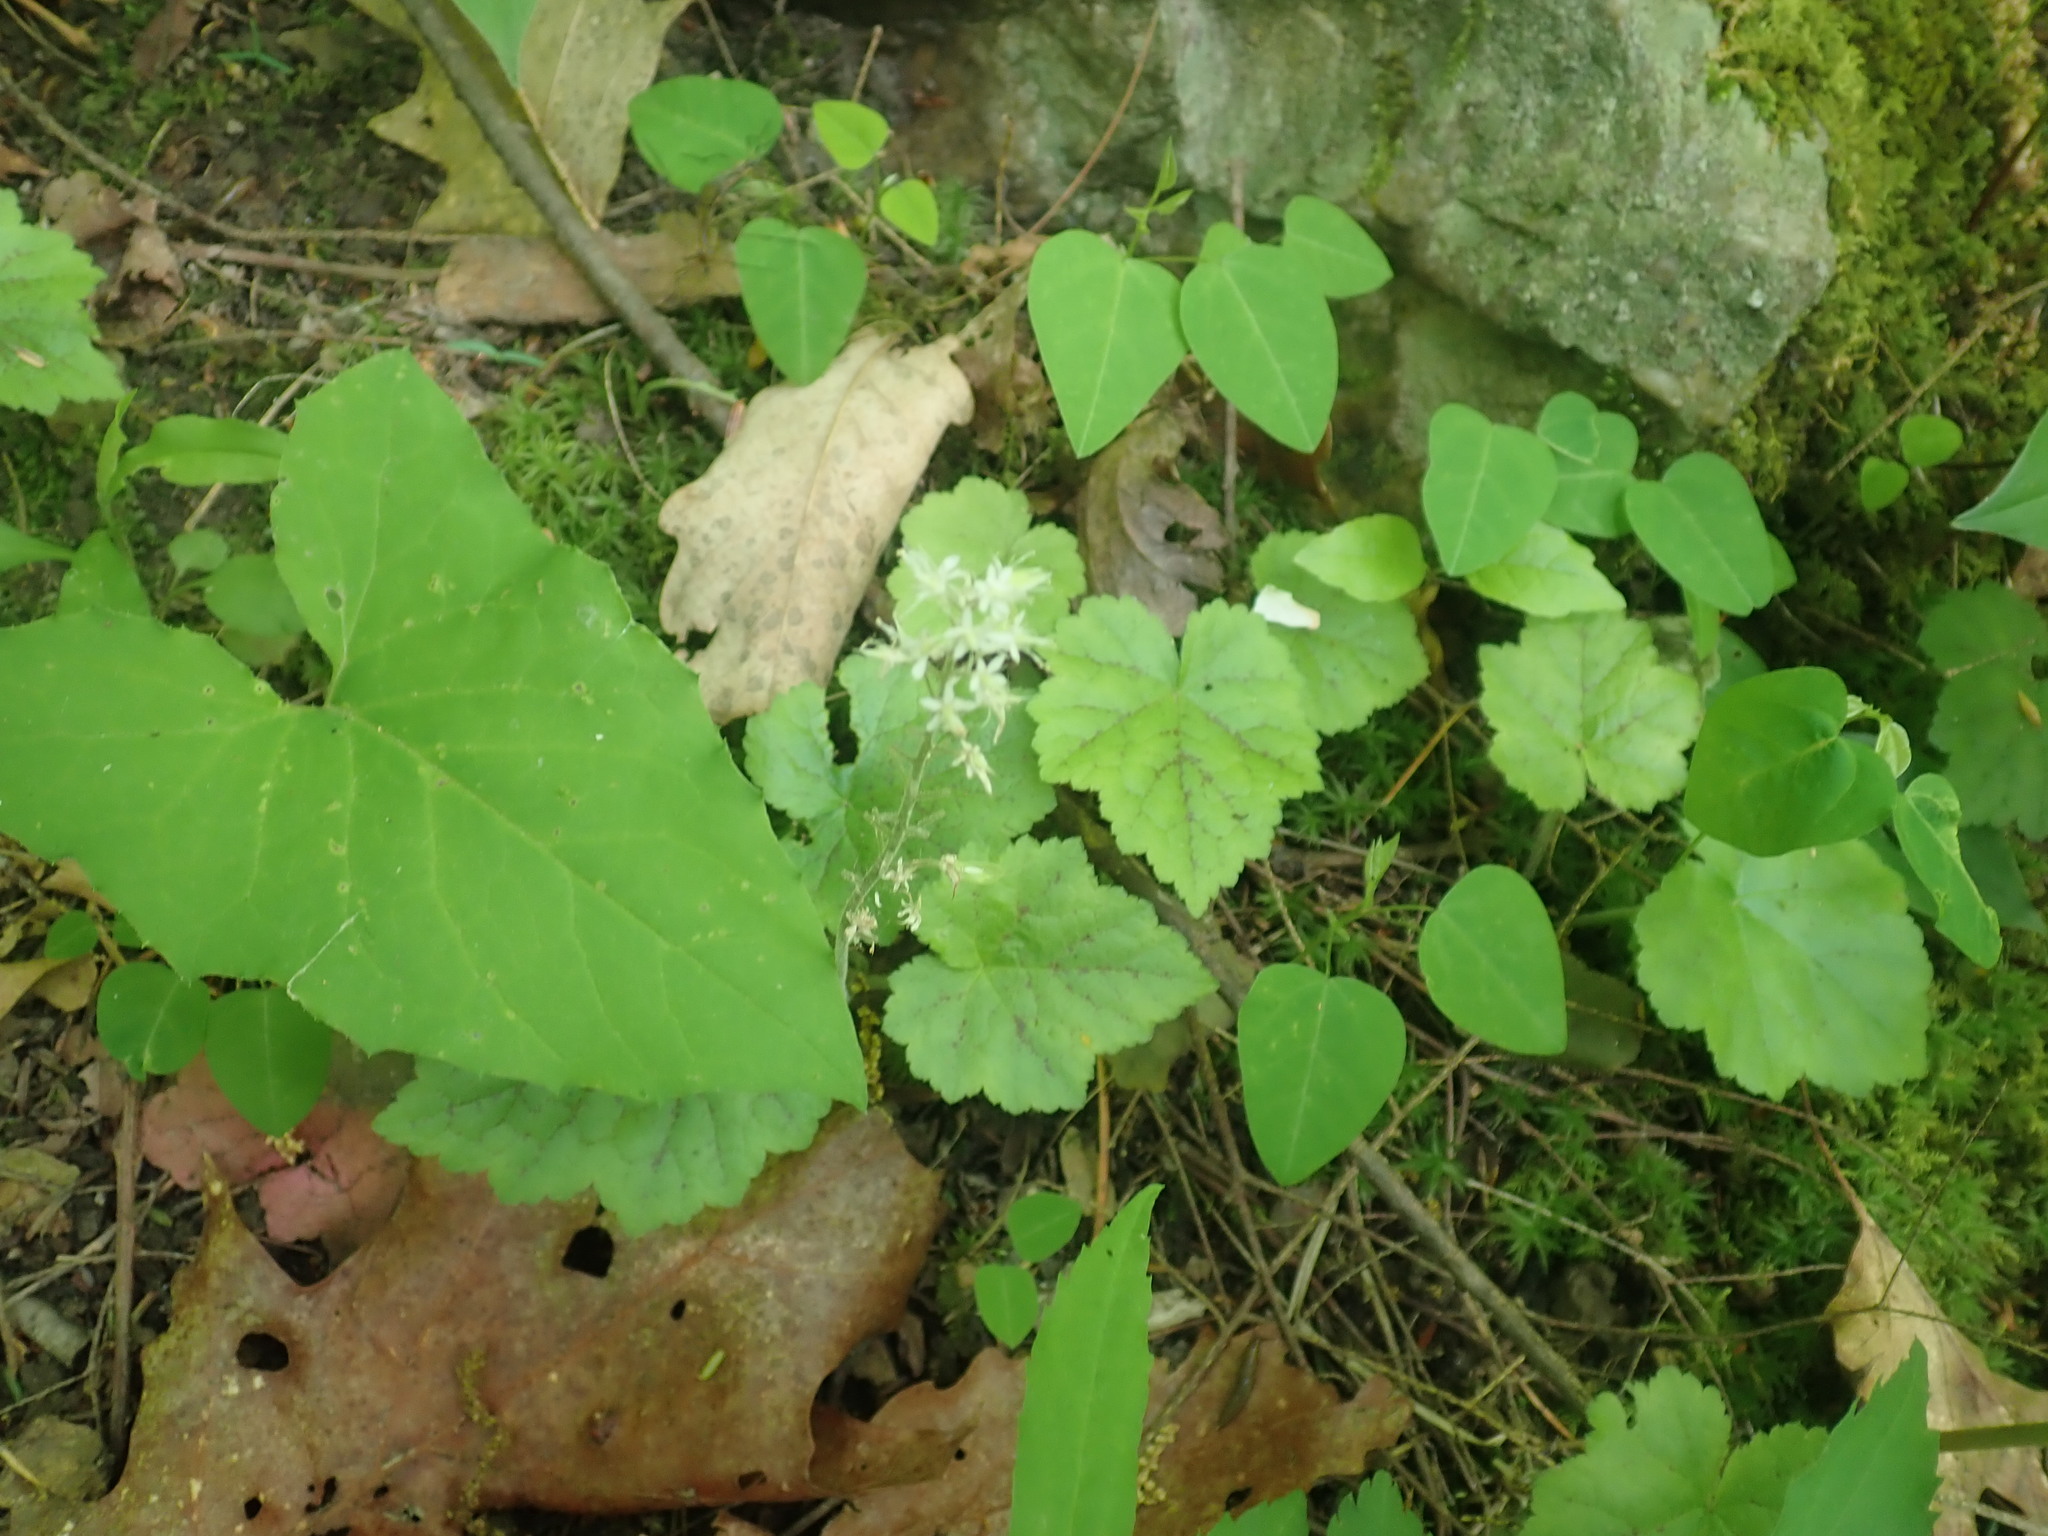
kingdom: Plantae
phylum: Tracheophyta
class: Magnoliopsida
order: Saxifragales
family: Saxifragaceae
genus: Tiarella
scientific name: Tiarella stolonifera
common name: Stoloniferous foamflower
